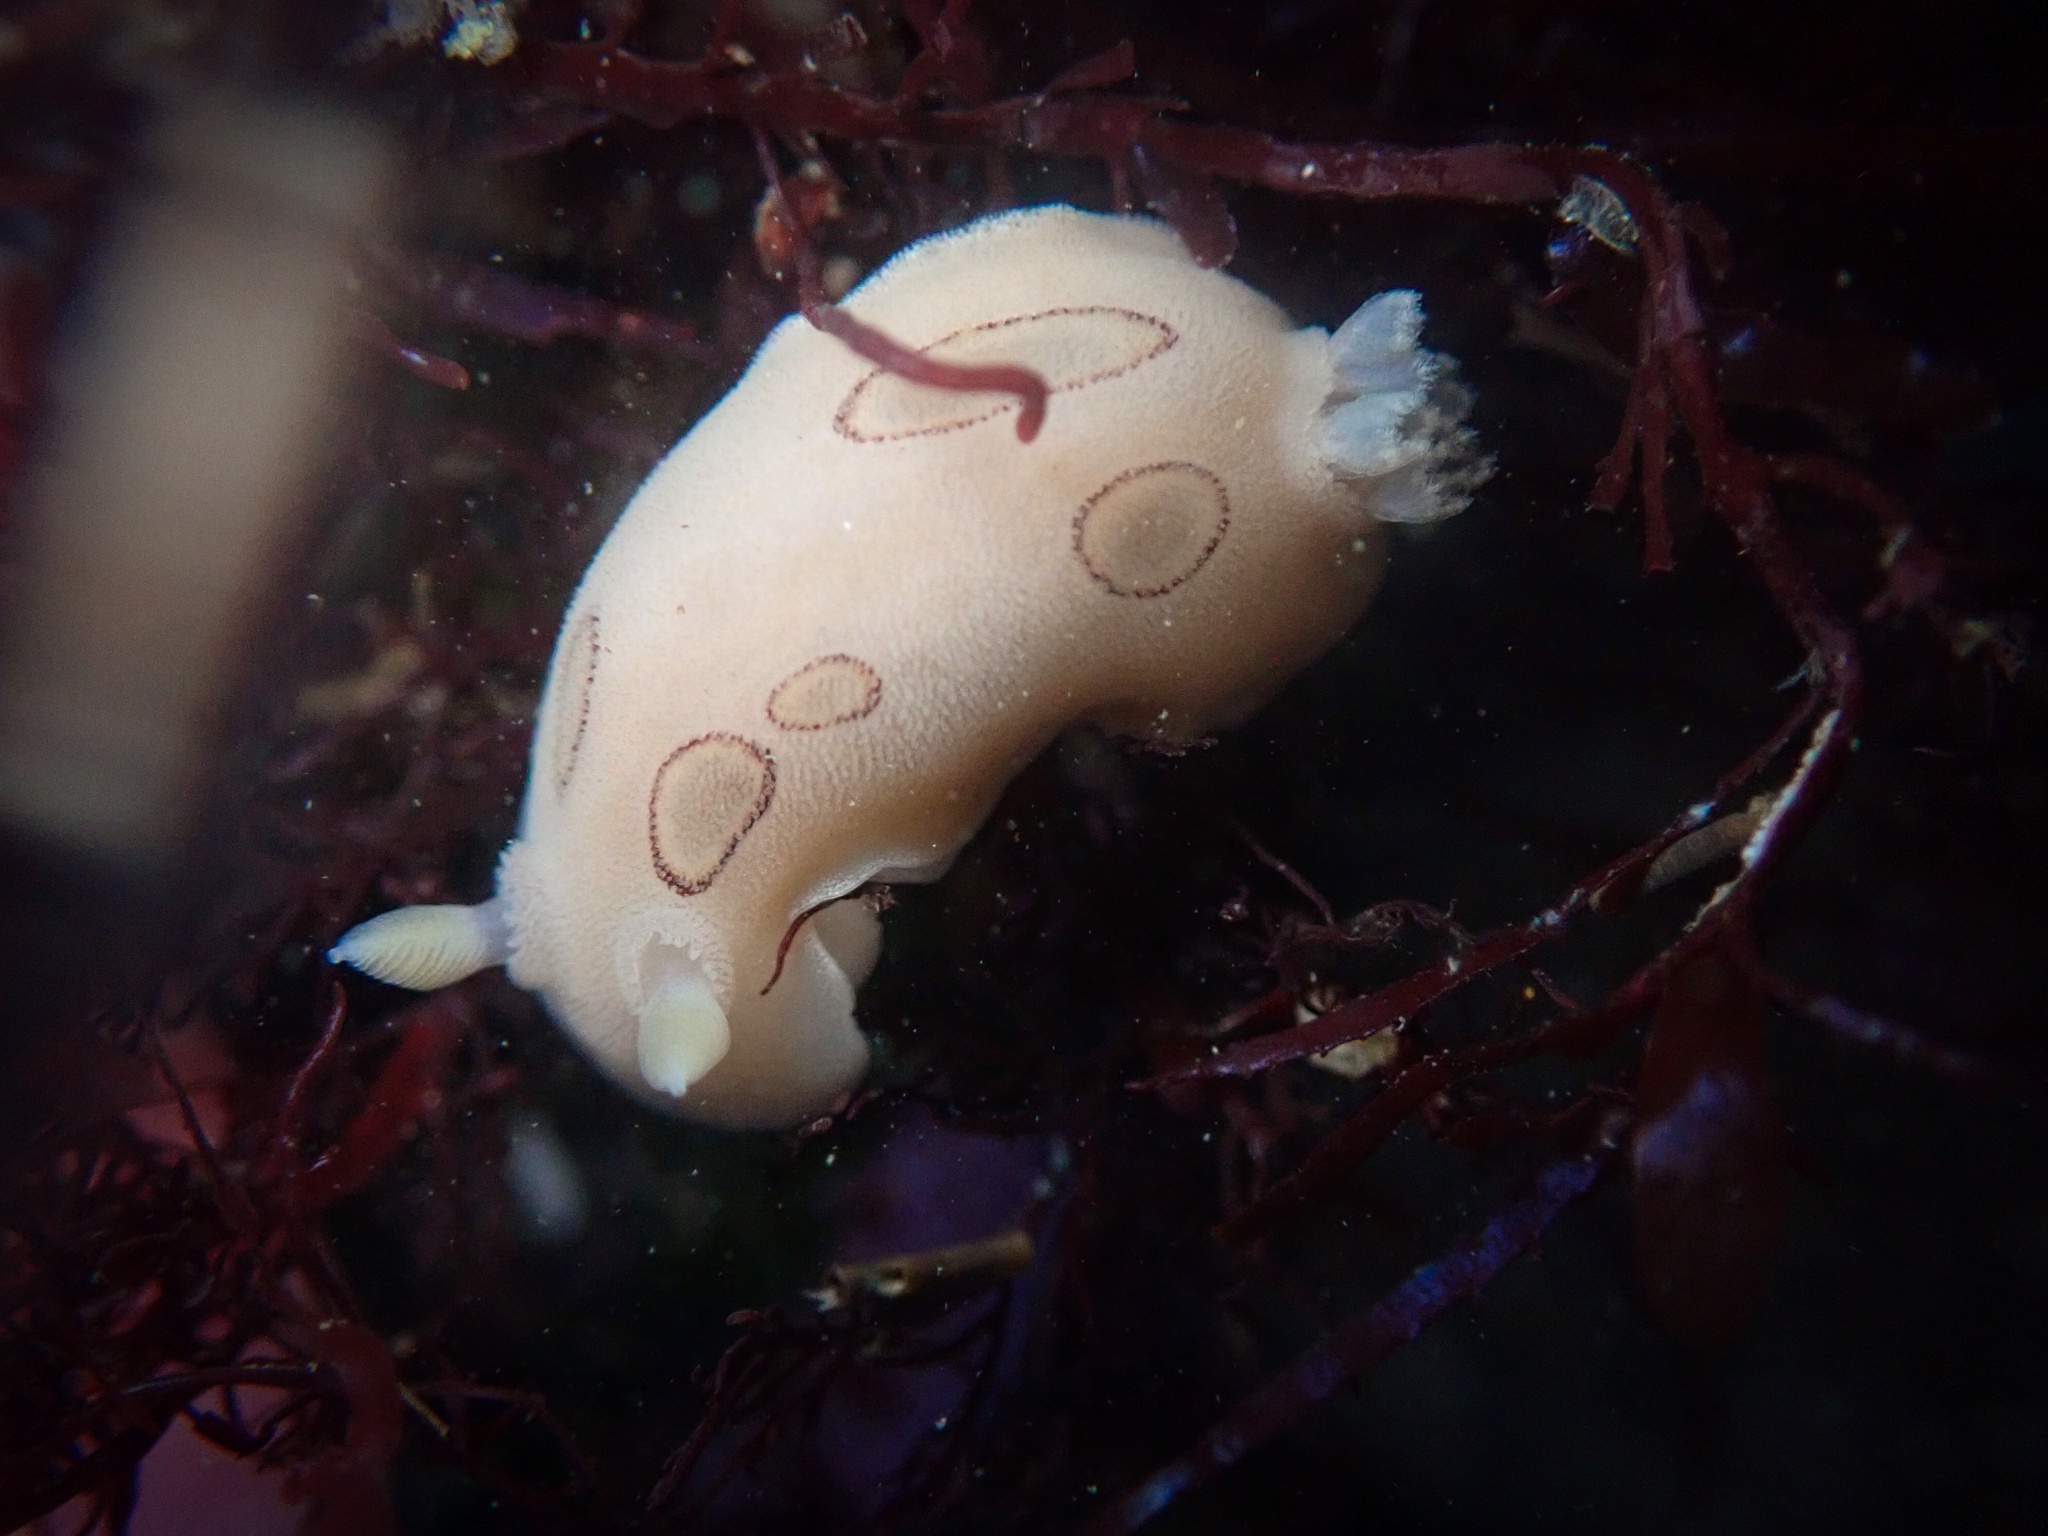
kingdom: Animalia
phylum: Mollusca
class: Gastropoda
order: Nudibranchia
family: Discodorididae
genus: Diaulula
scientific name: Diaulula sandiegensis
